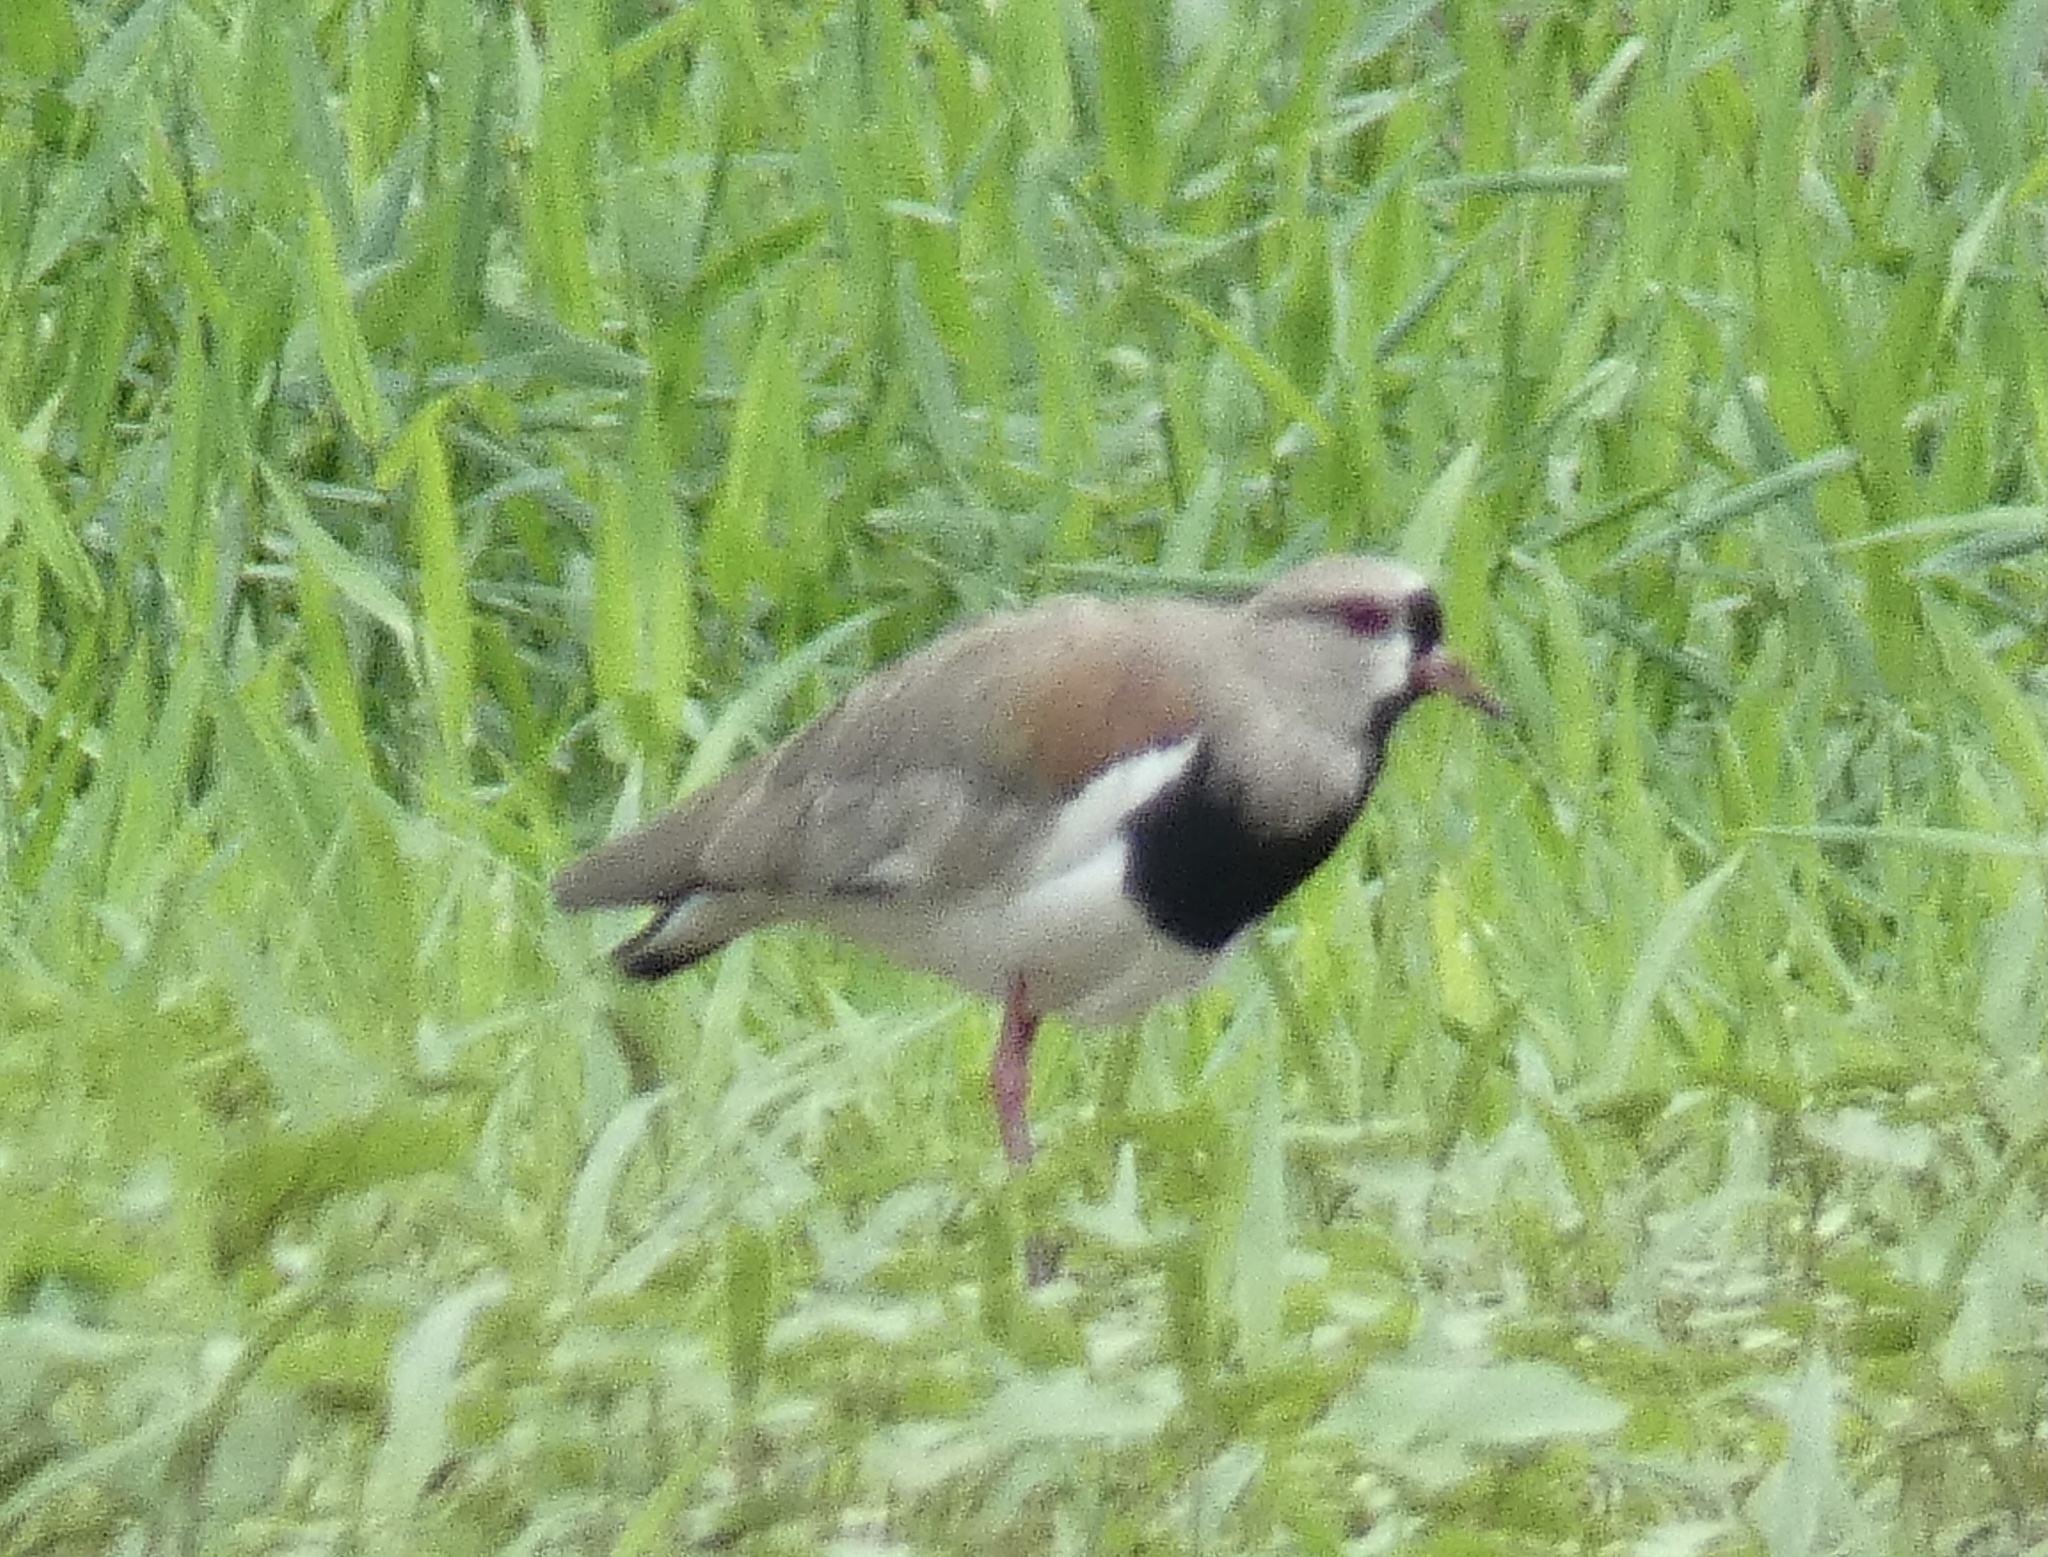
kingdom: Animalia
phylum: Chordata
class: Aves
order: Charadriiformes
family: Charadriidae
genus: Vanellus
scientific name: Vanellus chilensis
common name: Southern lapwing
